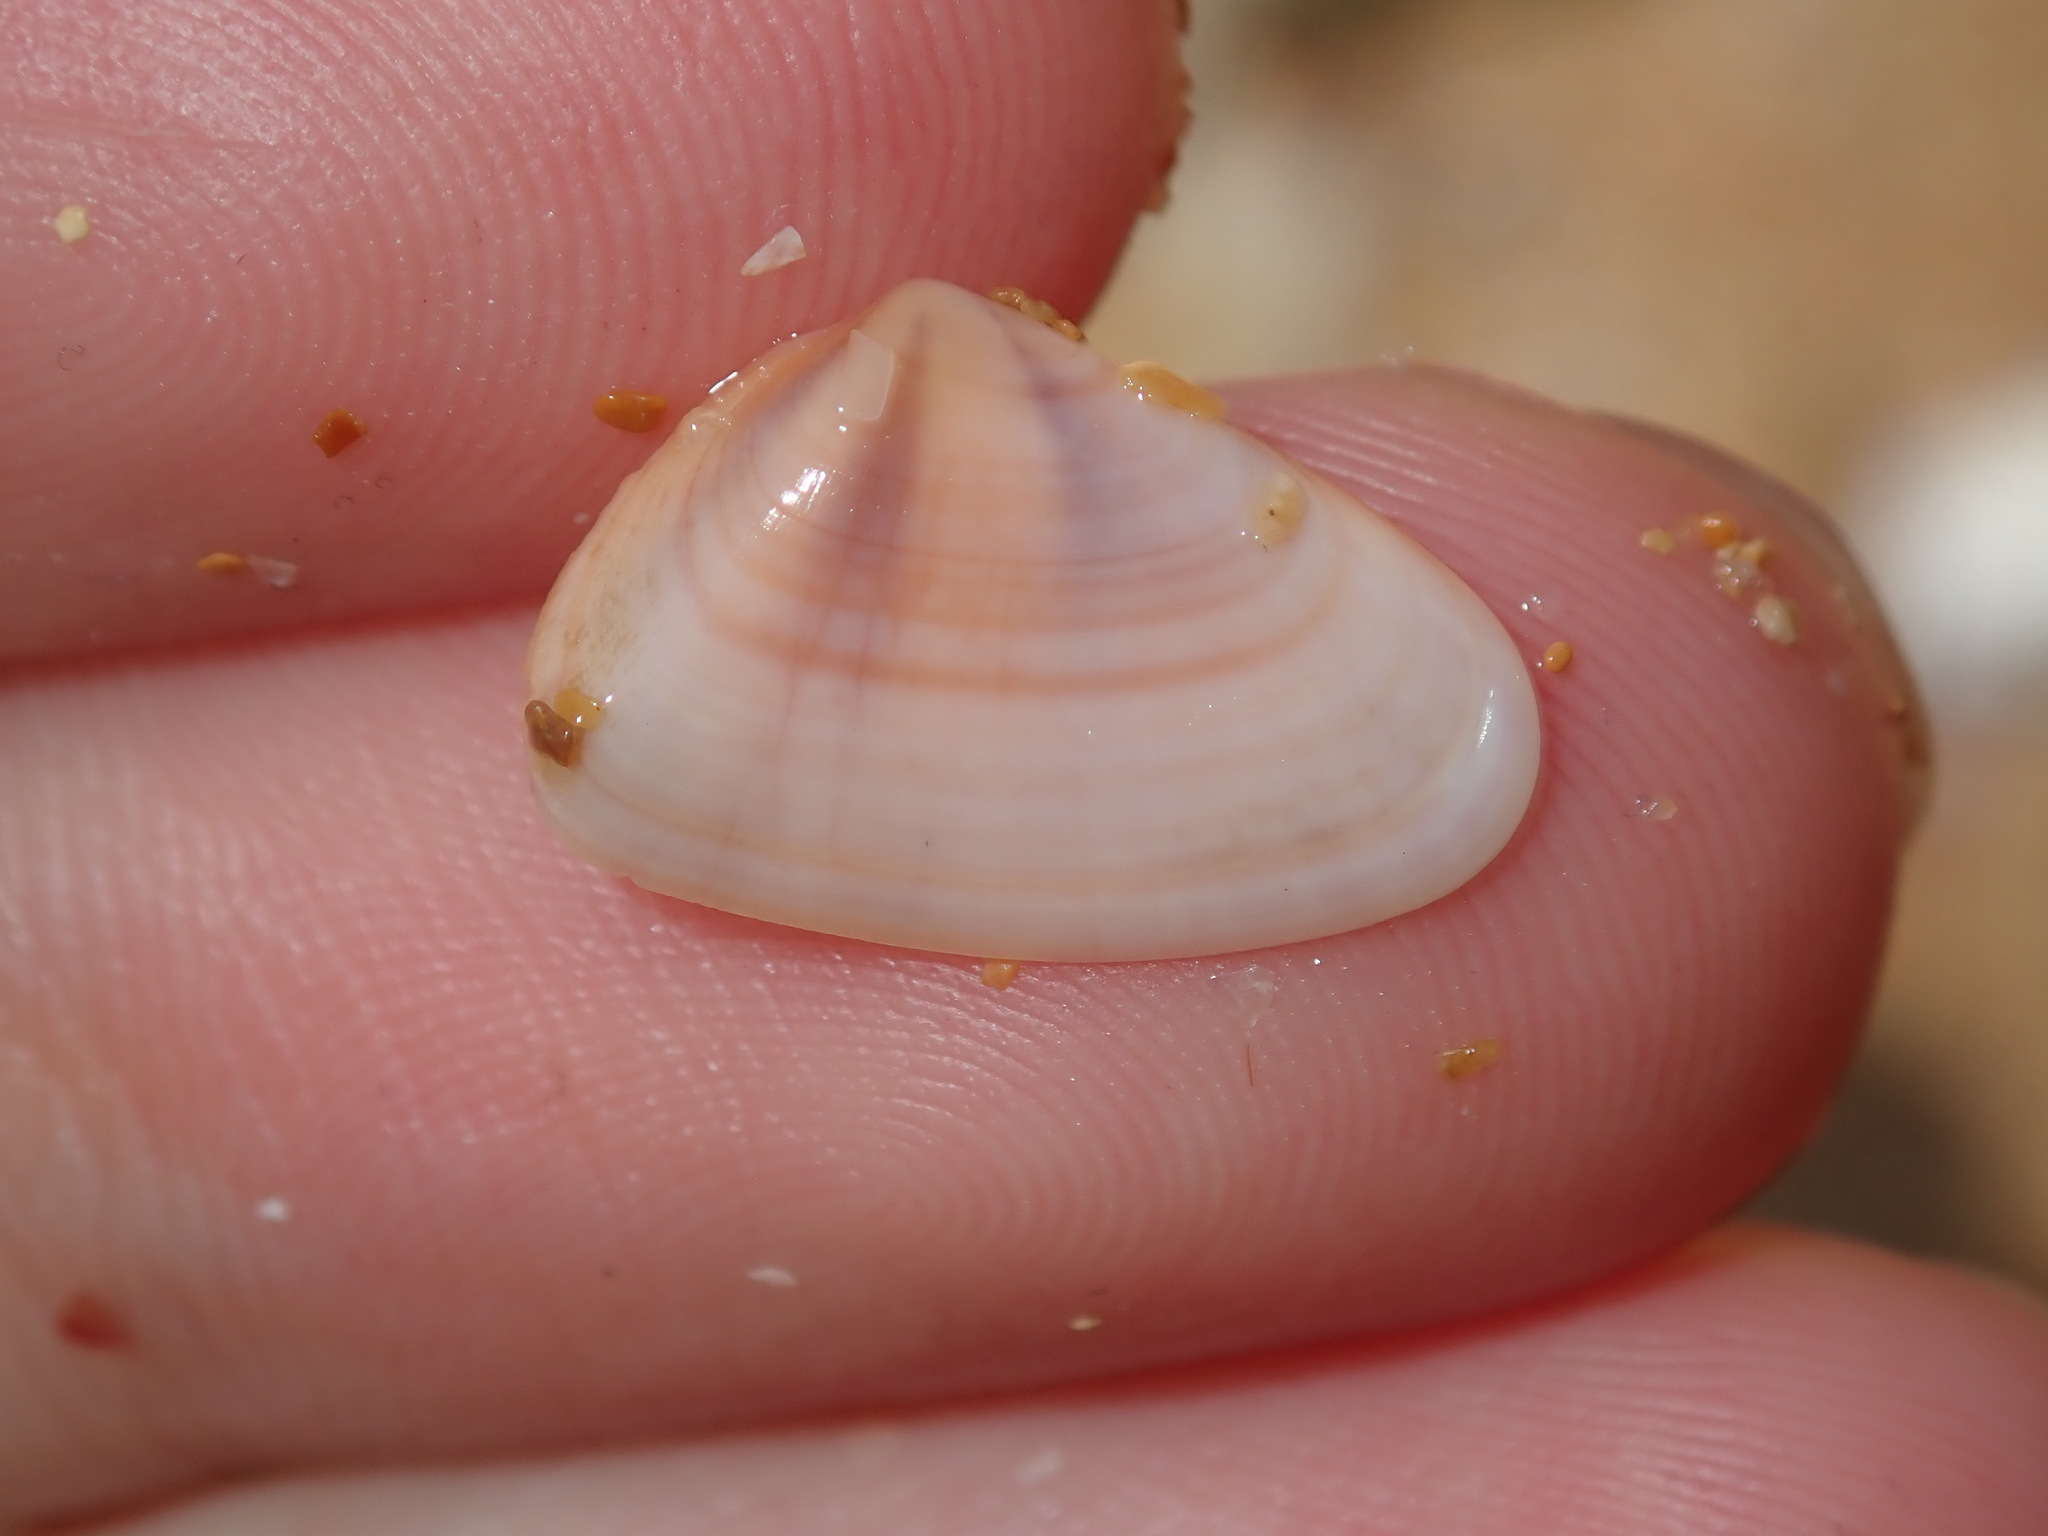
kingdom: Animalia
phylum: Mollusca
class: Bivalvia
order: Cardiida
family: Donacidae
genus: Latona
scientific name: Latona deltoides
